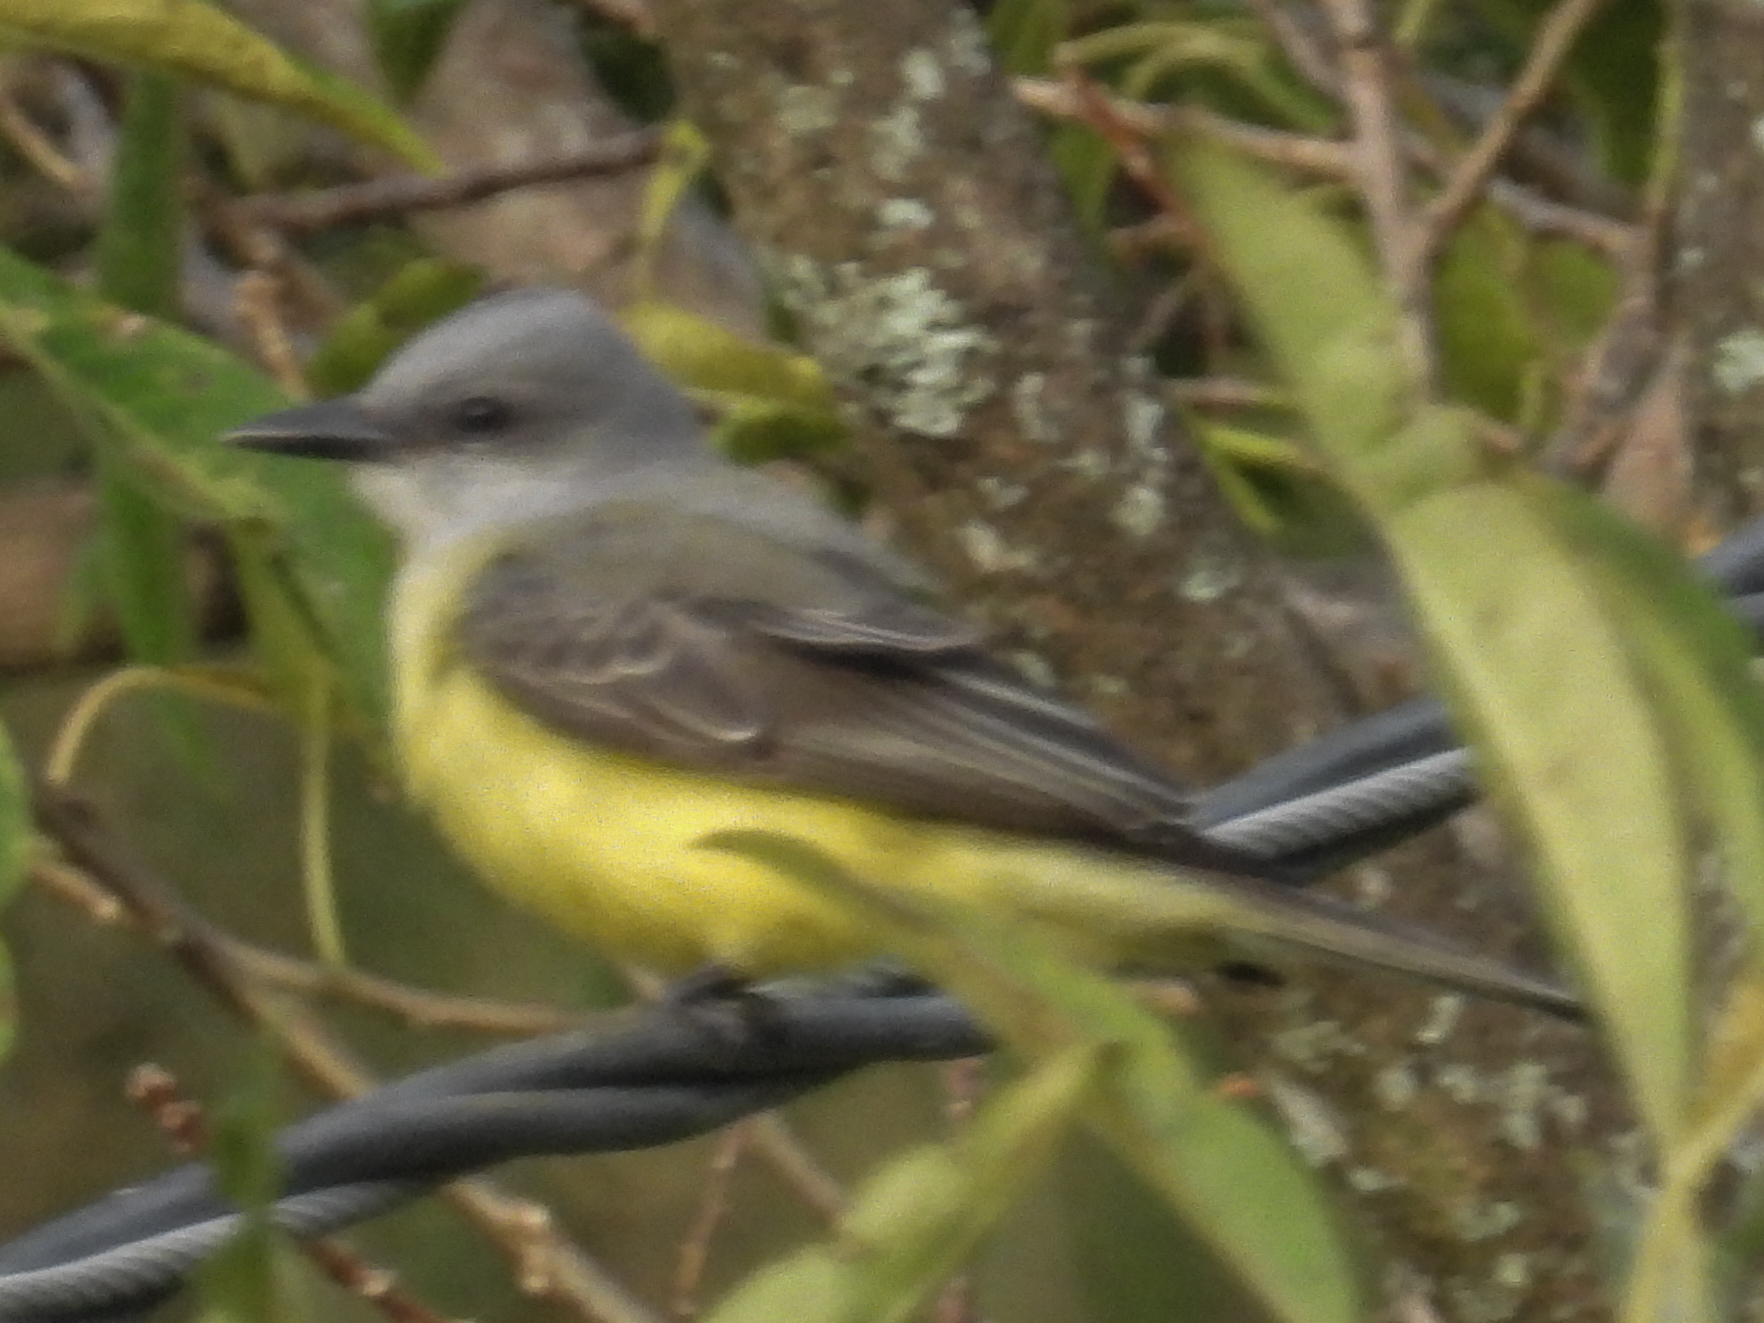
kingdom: Animalia
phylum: Chordata
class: Aves
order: Passeriformes
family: Tyrannidae
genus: Tyrannus
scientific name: Tyrannus melancholicus
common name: Tropical kingbird
